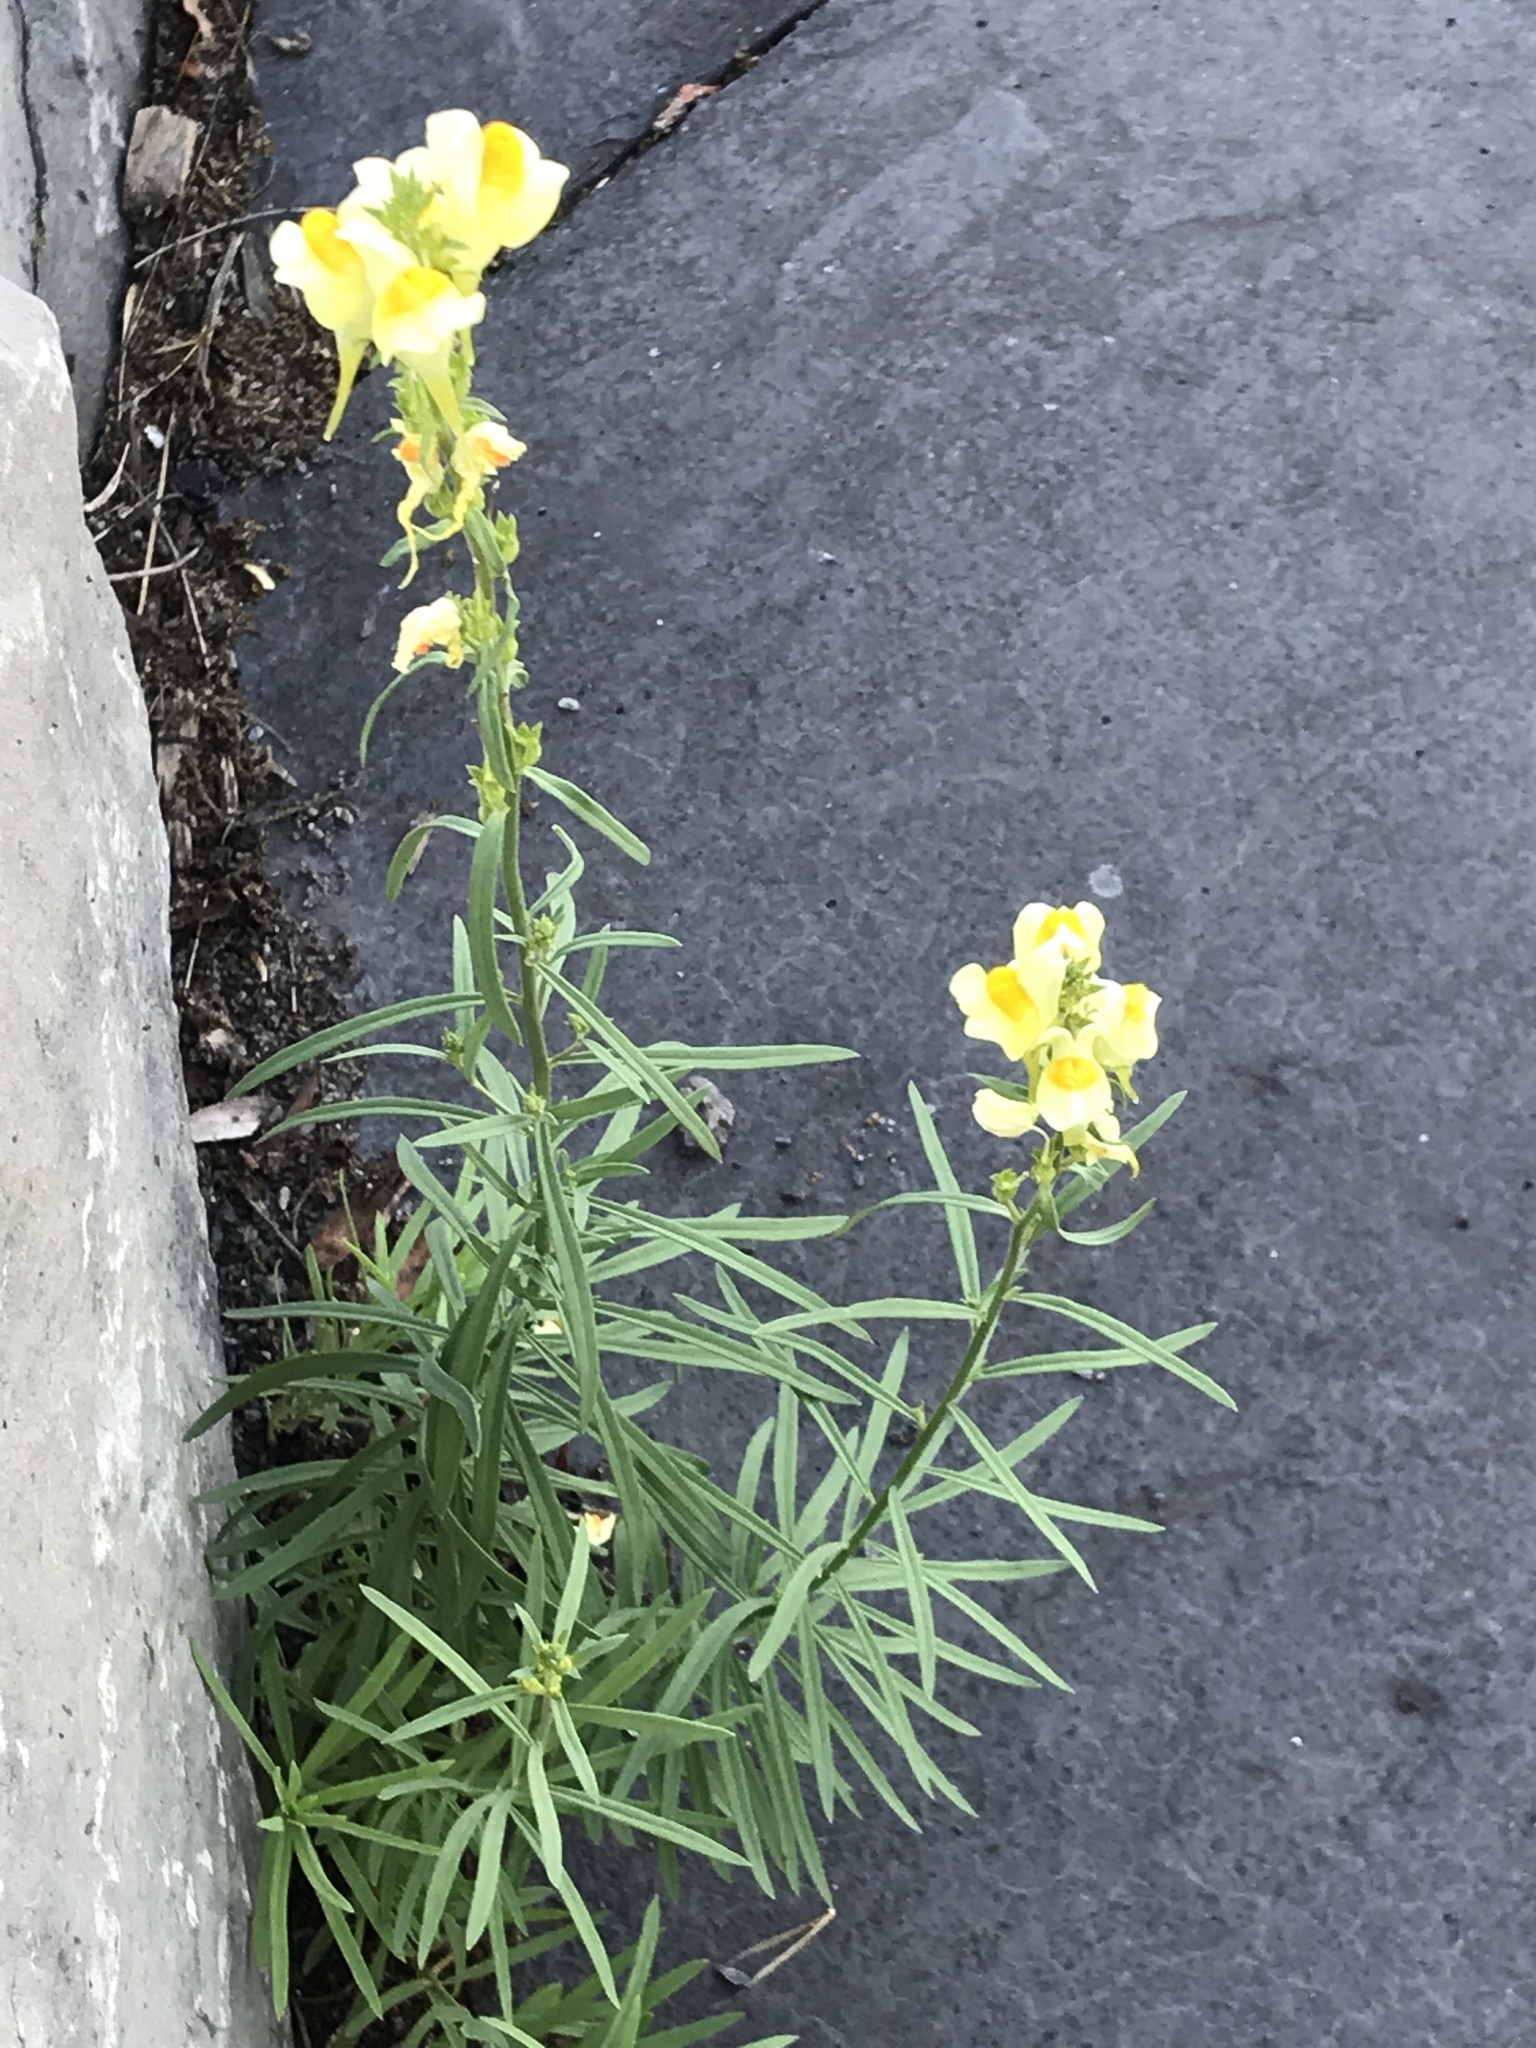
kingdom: Plantae
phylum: Tracheophyta
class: Magnoliopsida
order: Lamiales
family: Plantaginaceae
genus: Linaria
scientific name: Linaria vulgaris
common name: Butter and eggs
